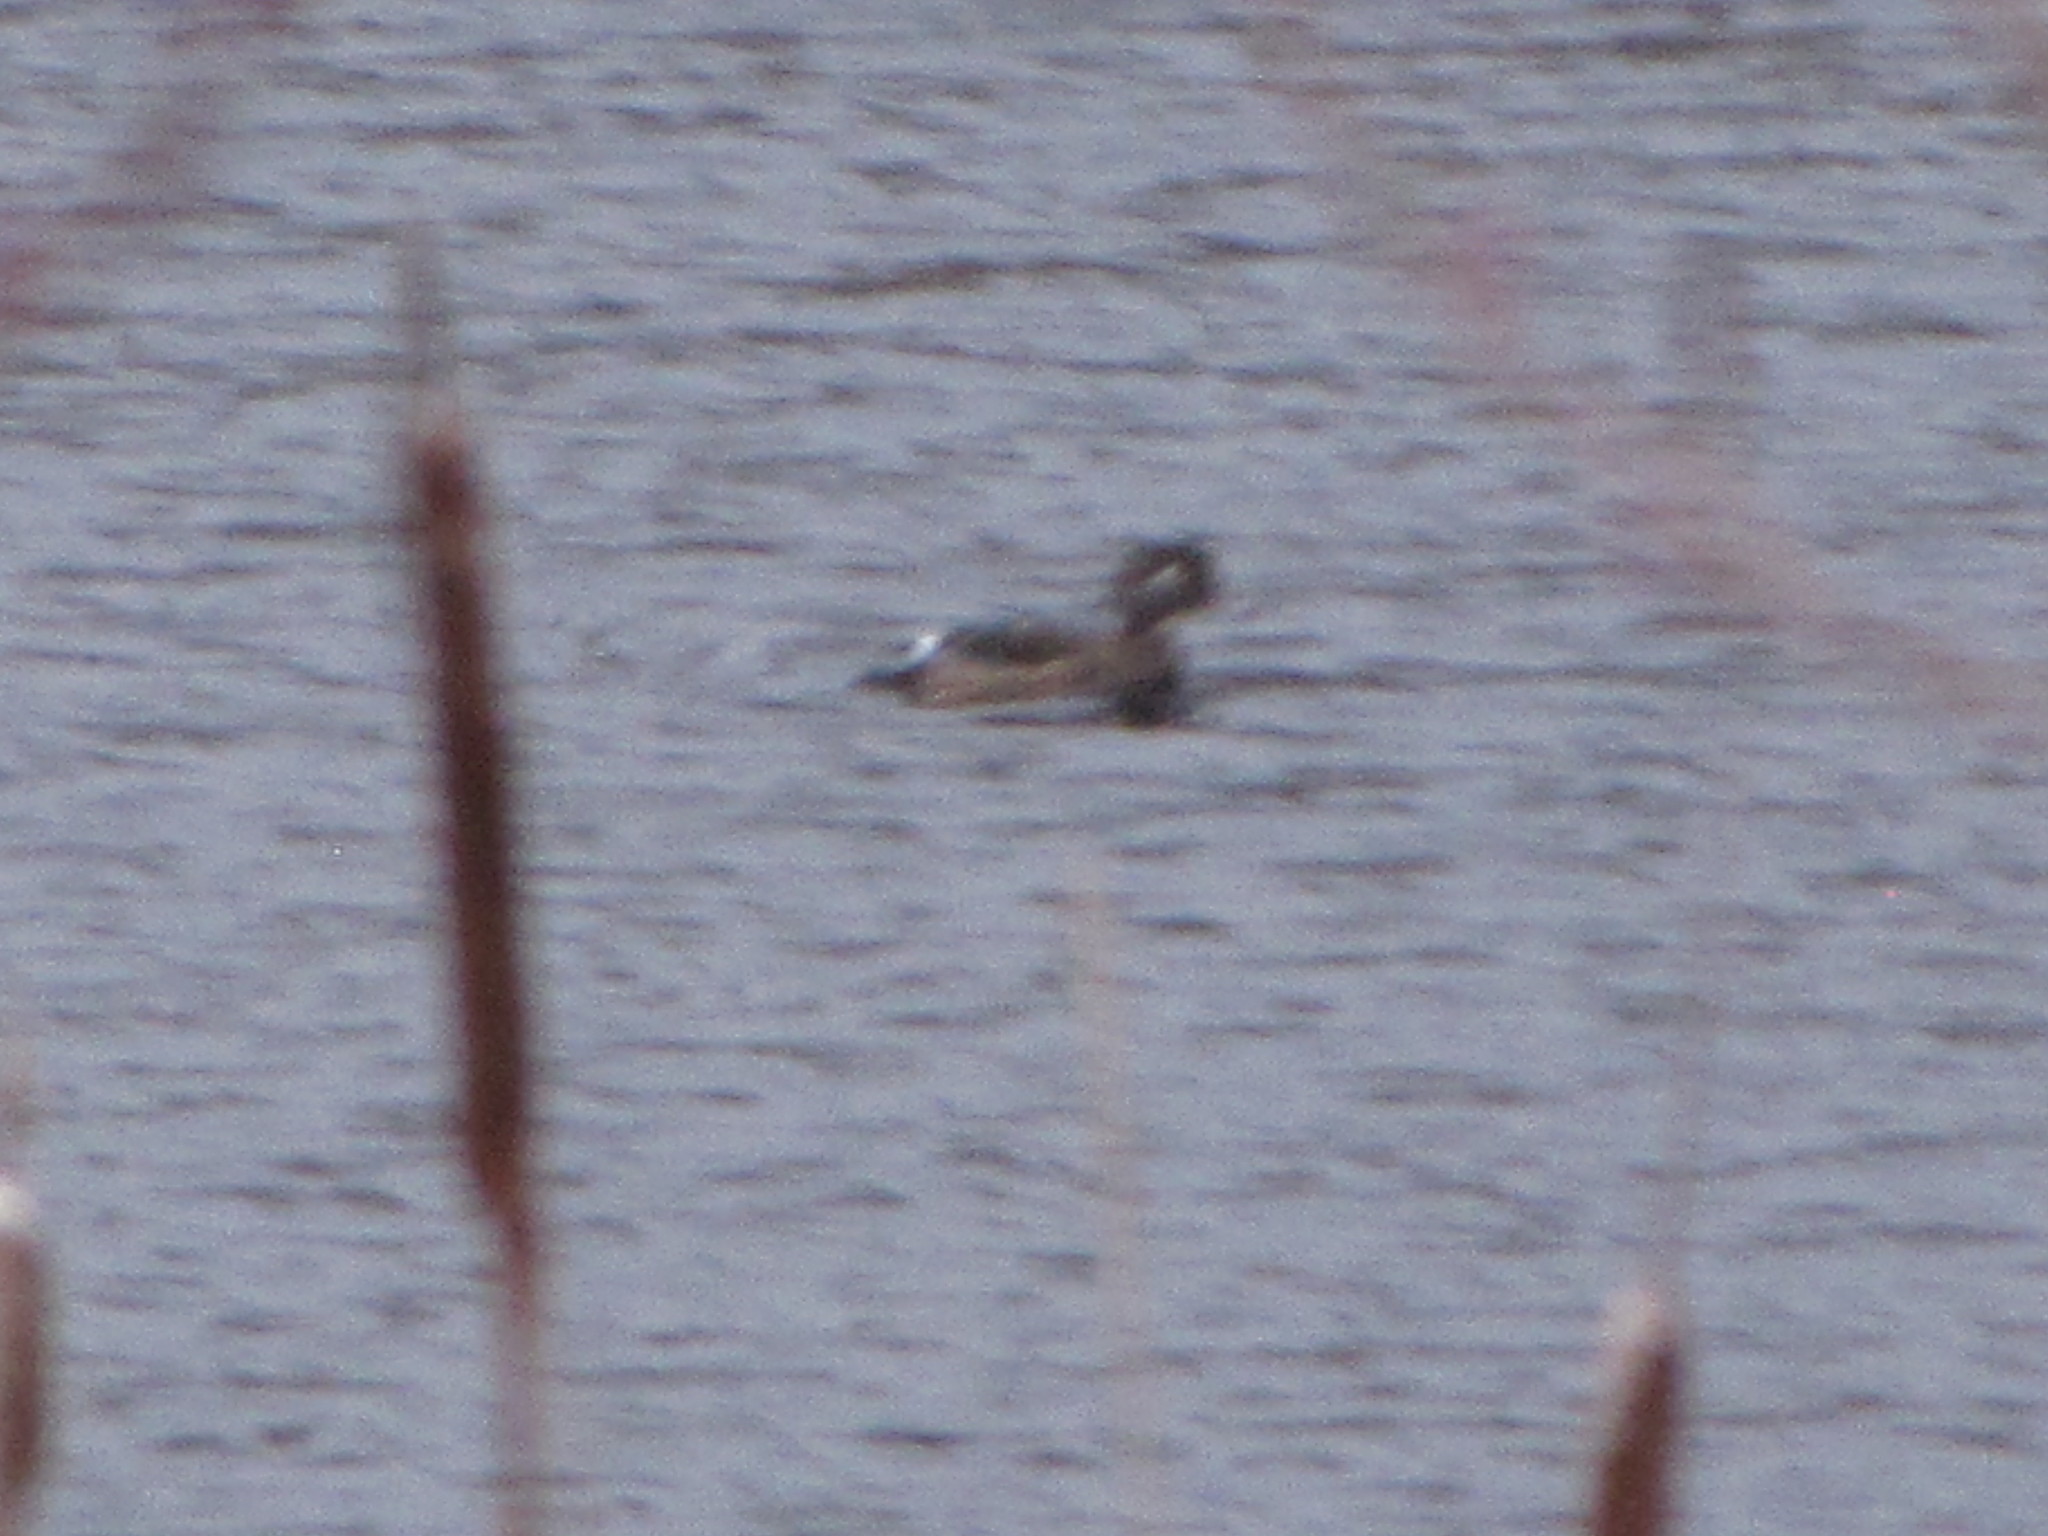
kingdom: Animalia
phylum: Chordata
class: Aves
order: Anseriformes
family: Anatidae
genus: Aix
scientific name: Aix sponsa
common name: Wood duck
